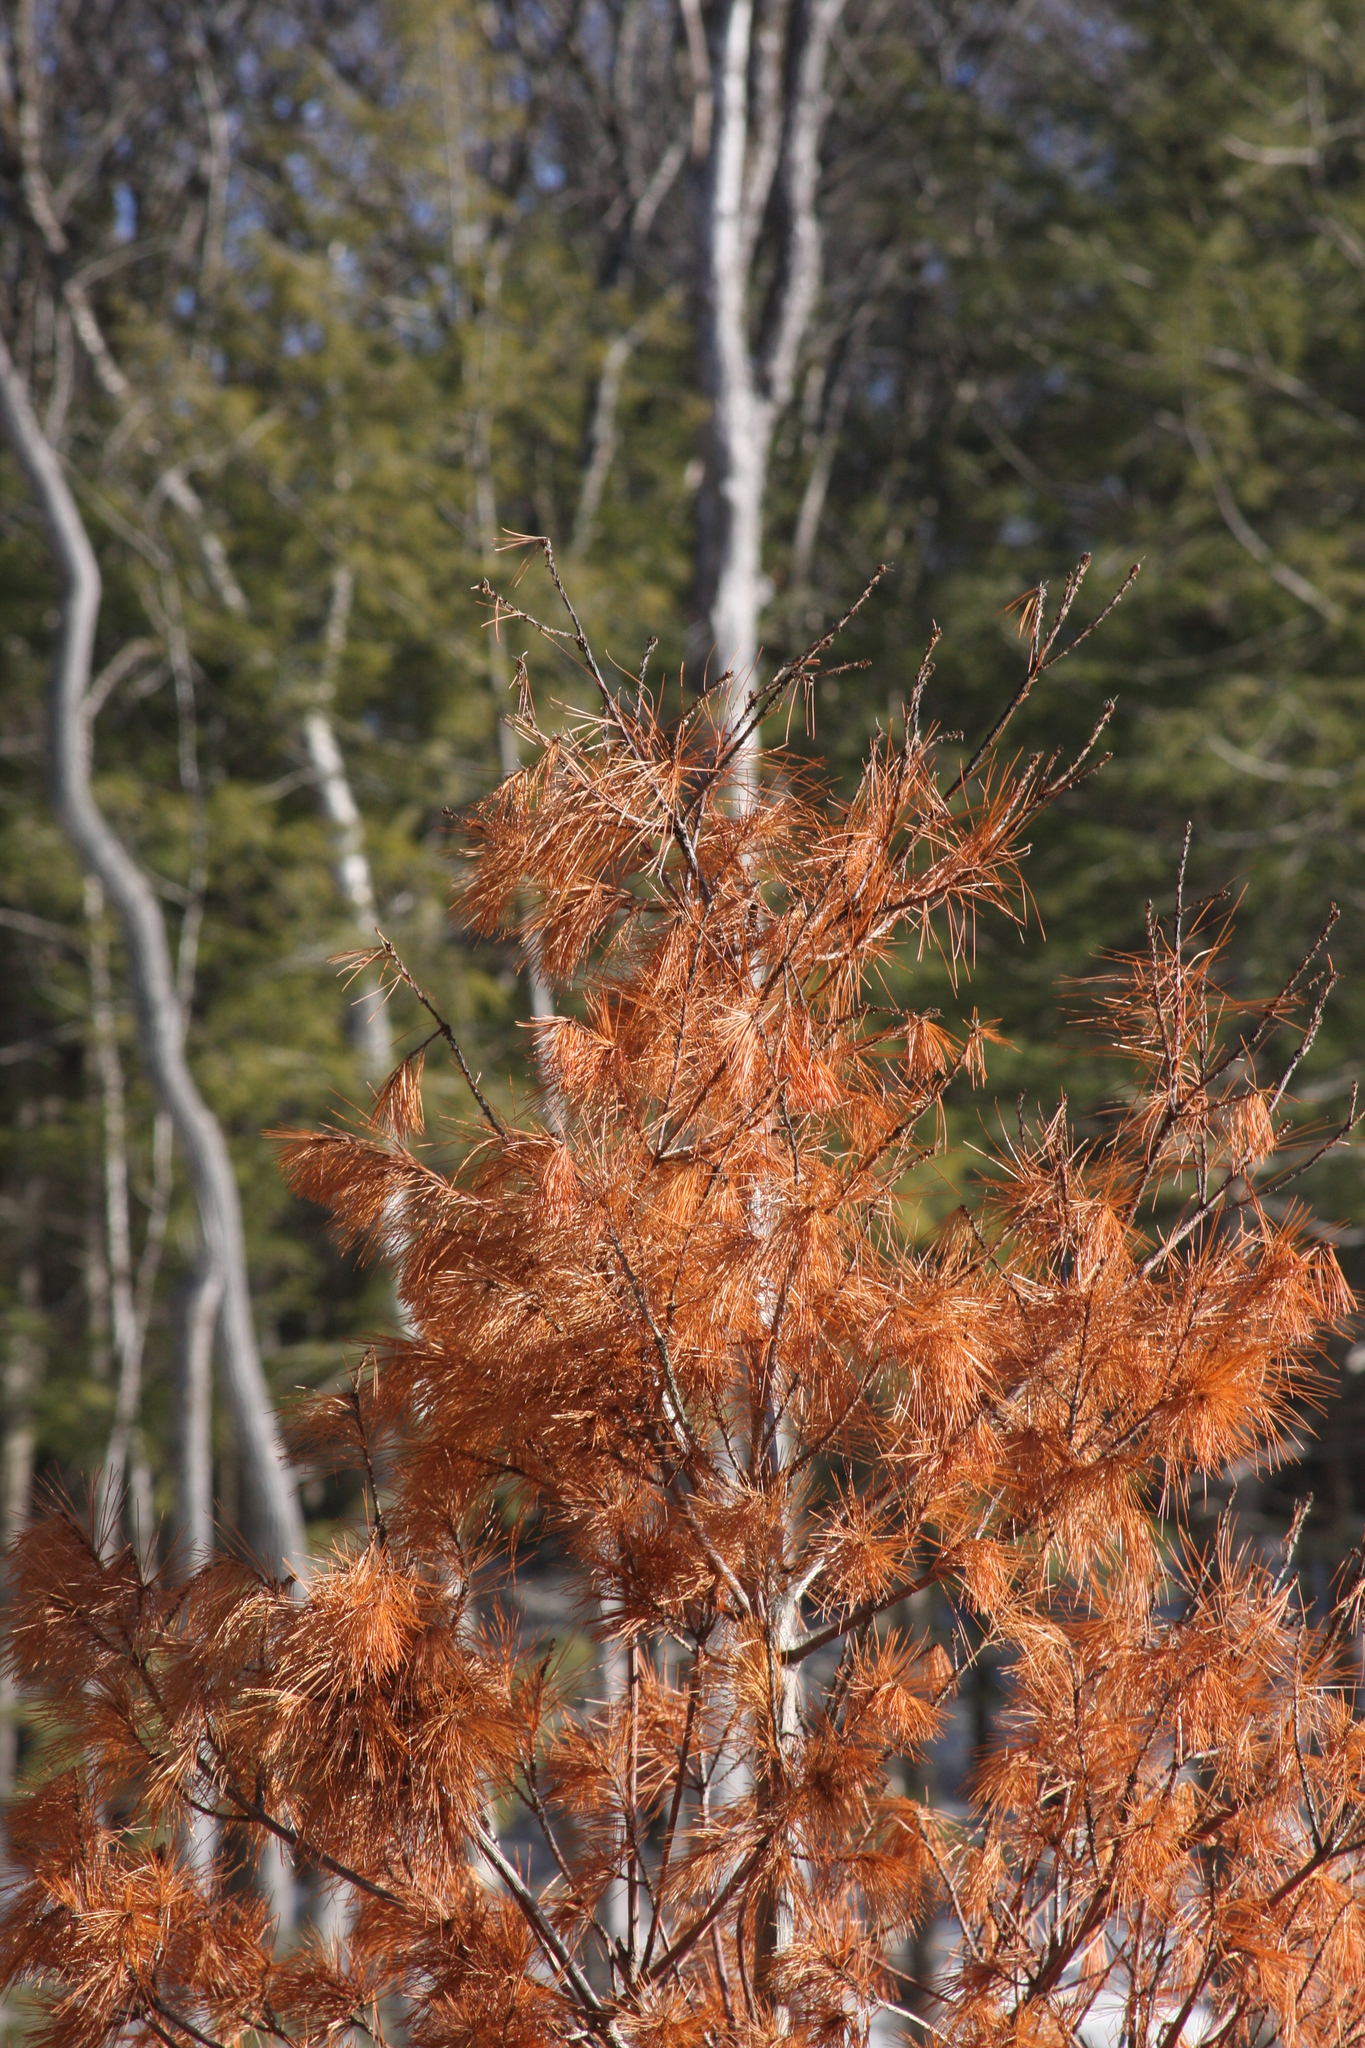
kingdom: Plantae
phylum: Tracheophyta
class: Pinopsida
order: Pinales
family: Pinaceae
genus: Pinus
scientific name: Pinus strobus
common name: Weymouth pine
